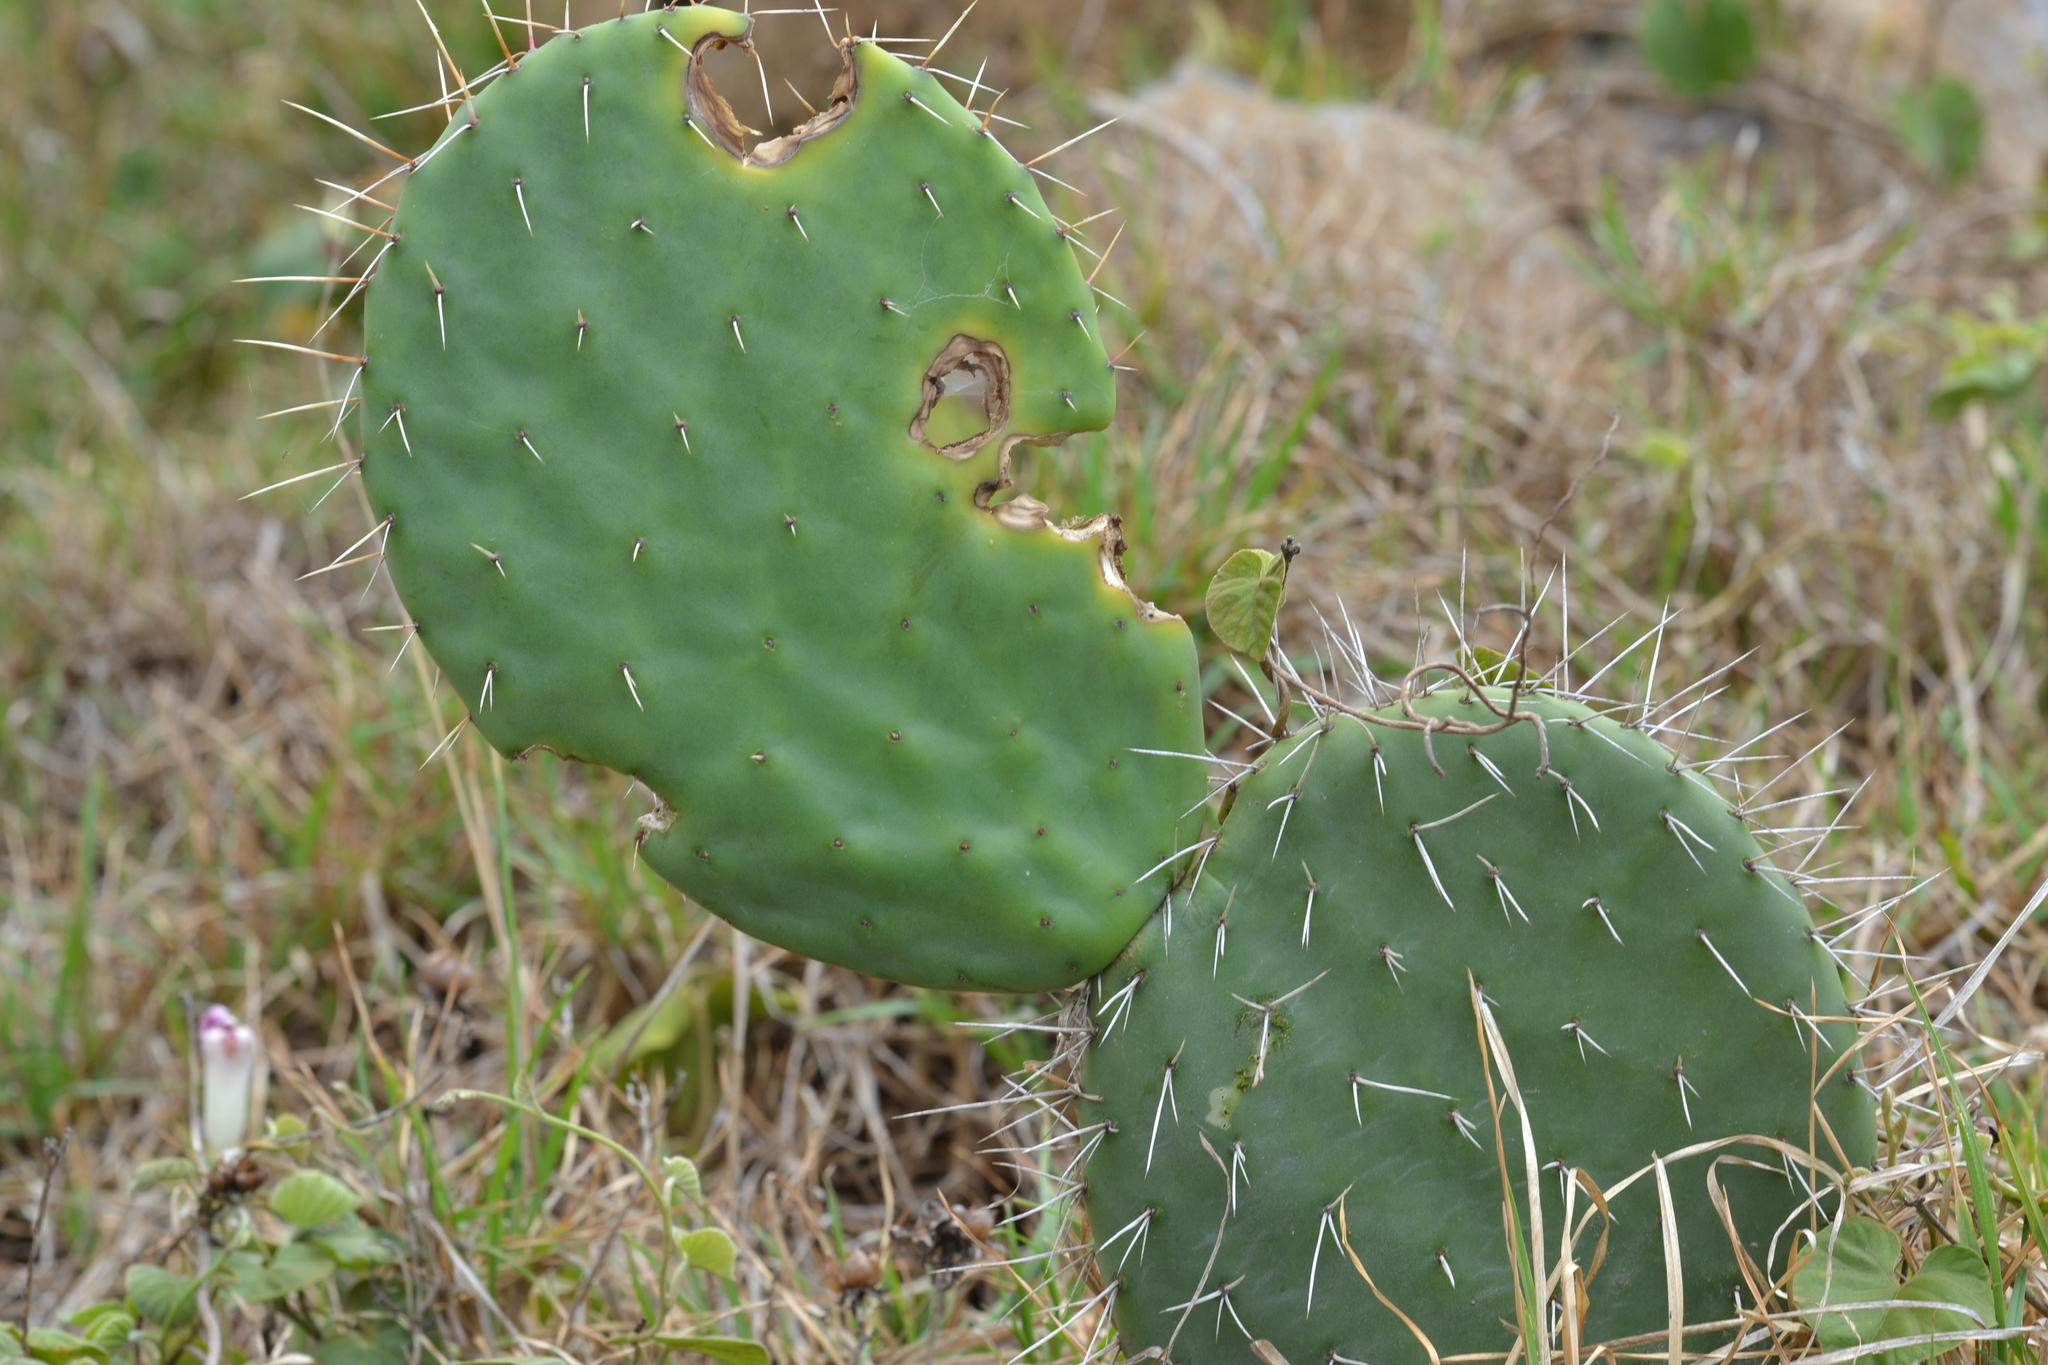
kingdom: Plantae
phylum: Tracheophyta
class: Magnoliopsida
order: Caryophyllales
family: Cactaceae
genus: Opuntia
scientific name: Opuntia ficus-indica
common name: Barbary fig
